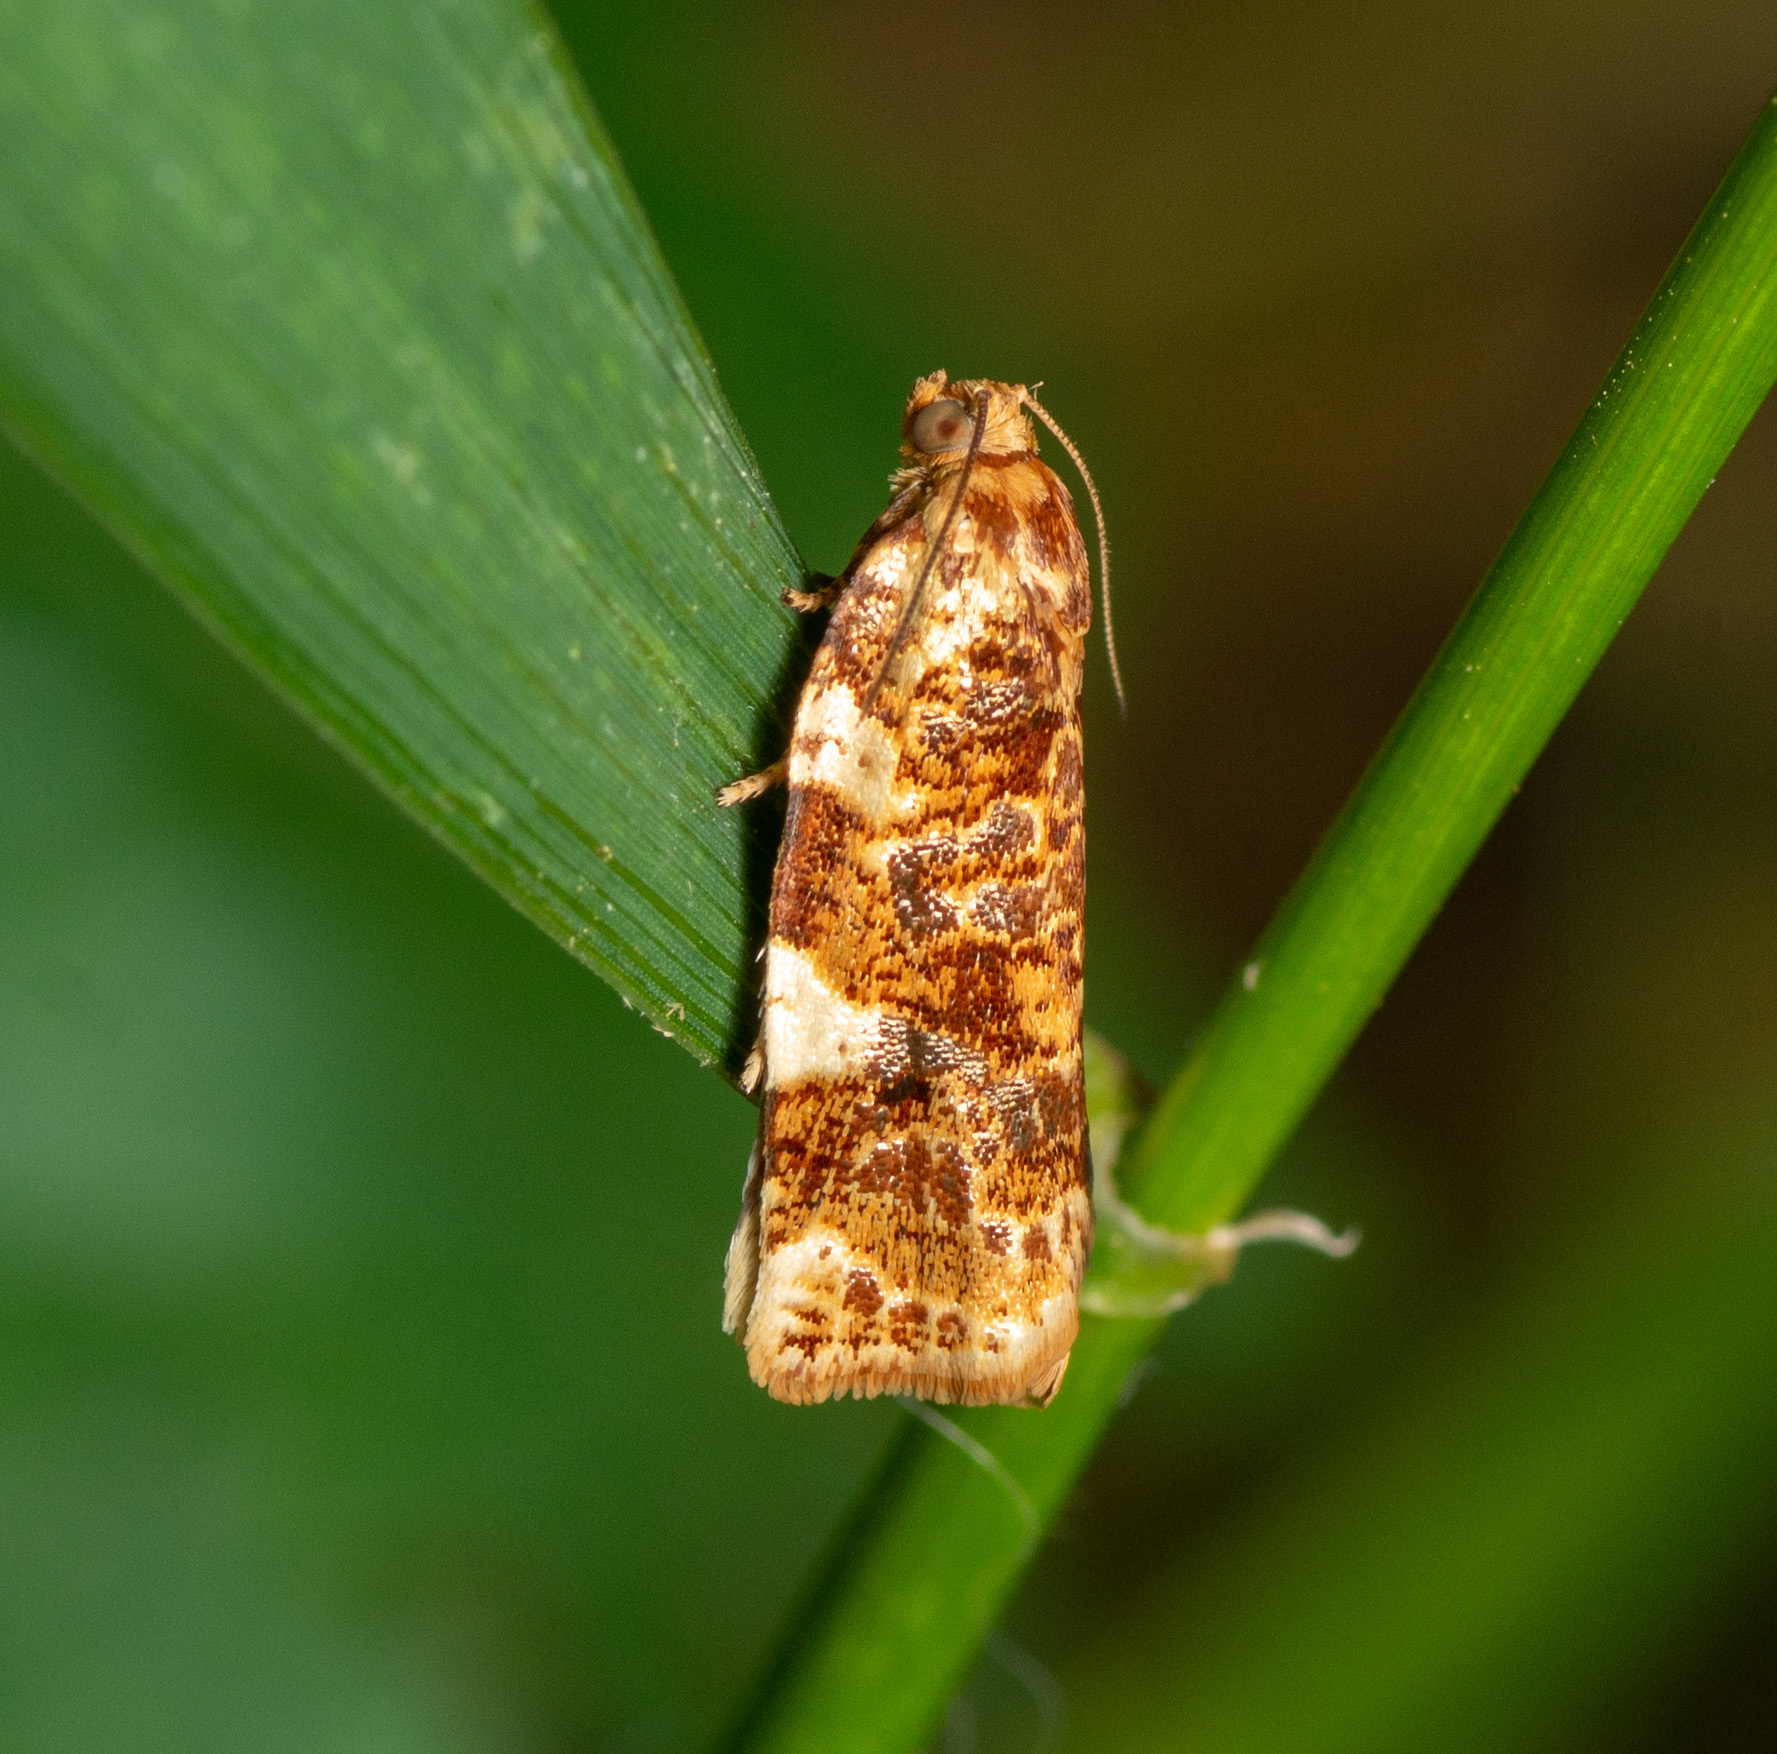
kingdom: Animalia
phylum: Arthropoda
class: Insecta
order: Lepidoptera
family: Tortricidae
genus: Archips
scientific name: Archips argyrospila
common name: Fruit-tree leafroller moth
